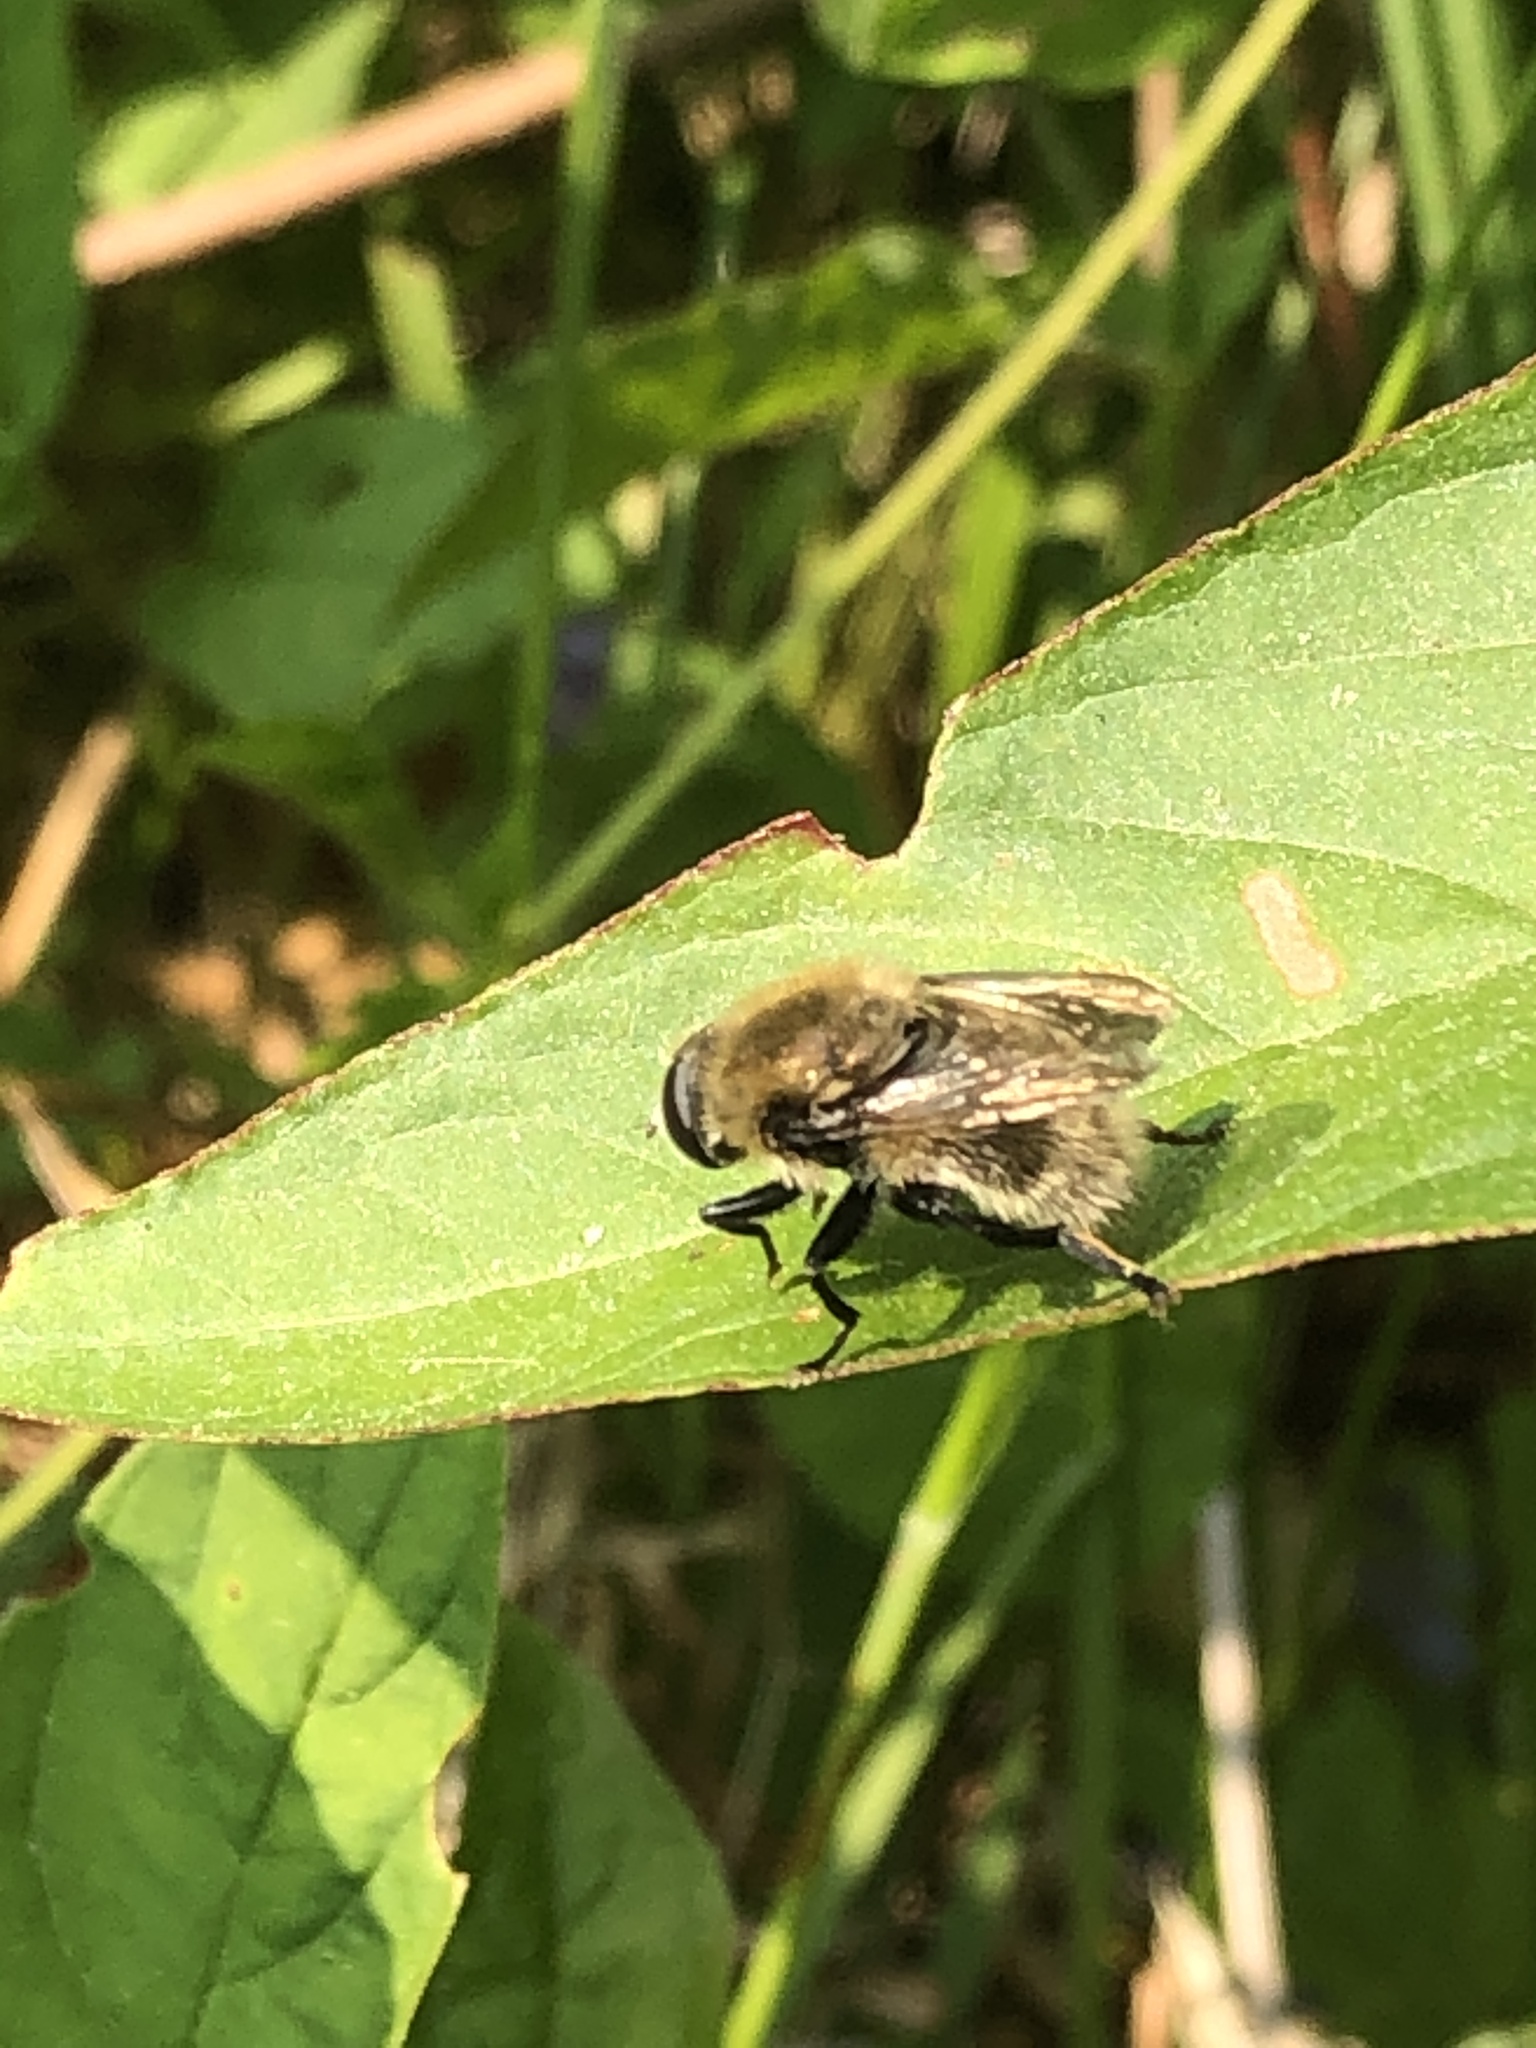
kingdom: Animalia
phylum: Arthropoda
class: Insecta
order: Diptera
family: Syrphidae
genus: Merodon
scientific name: Merodon equestris
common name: Greater bulb-fly
